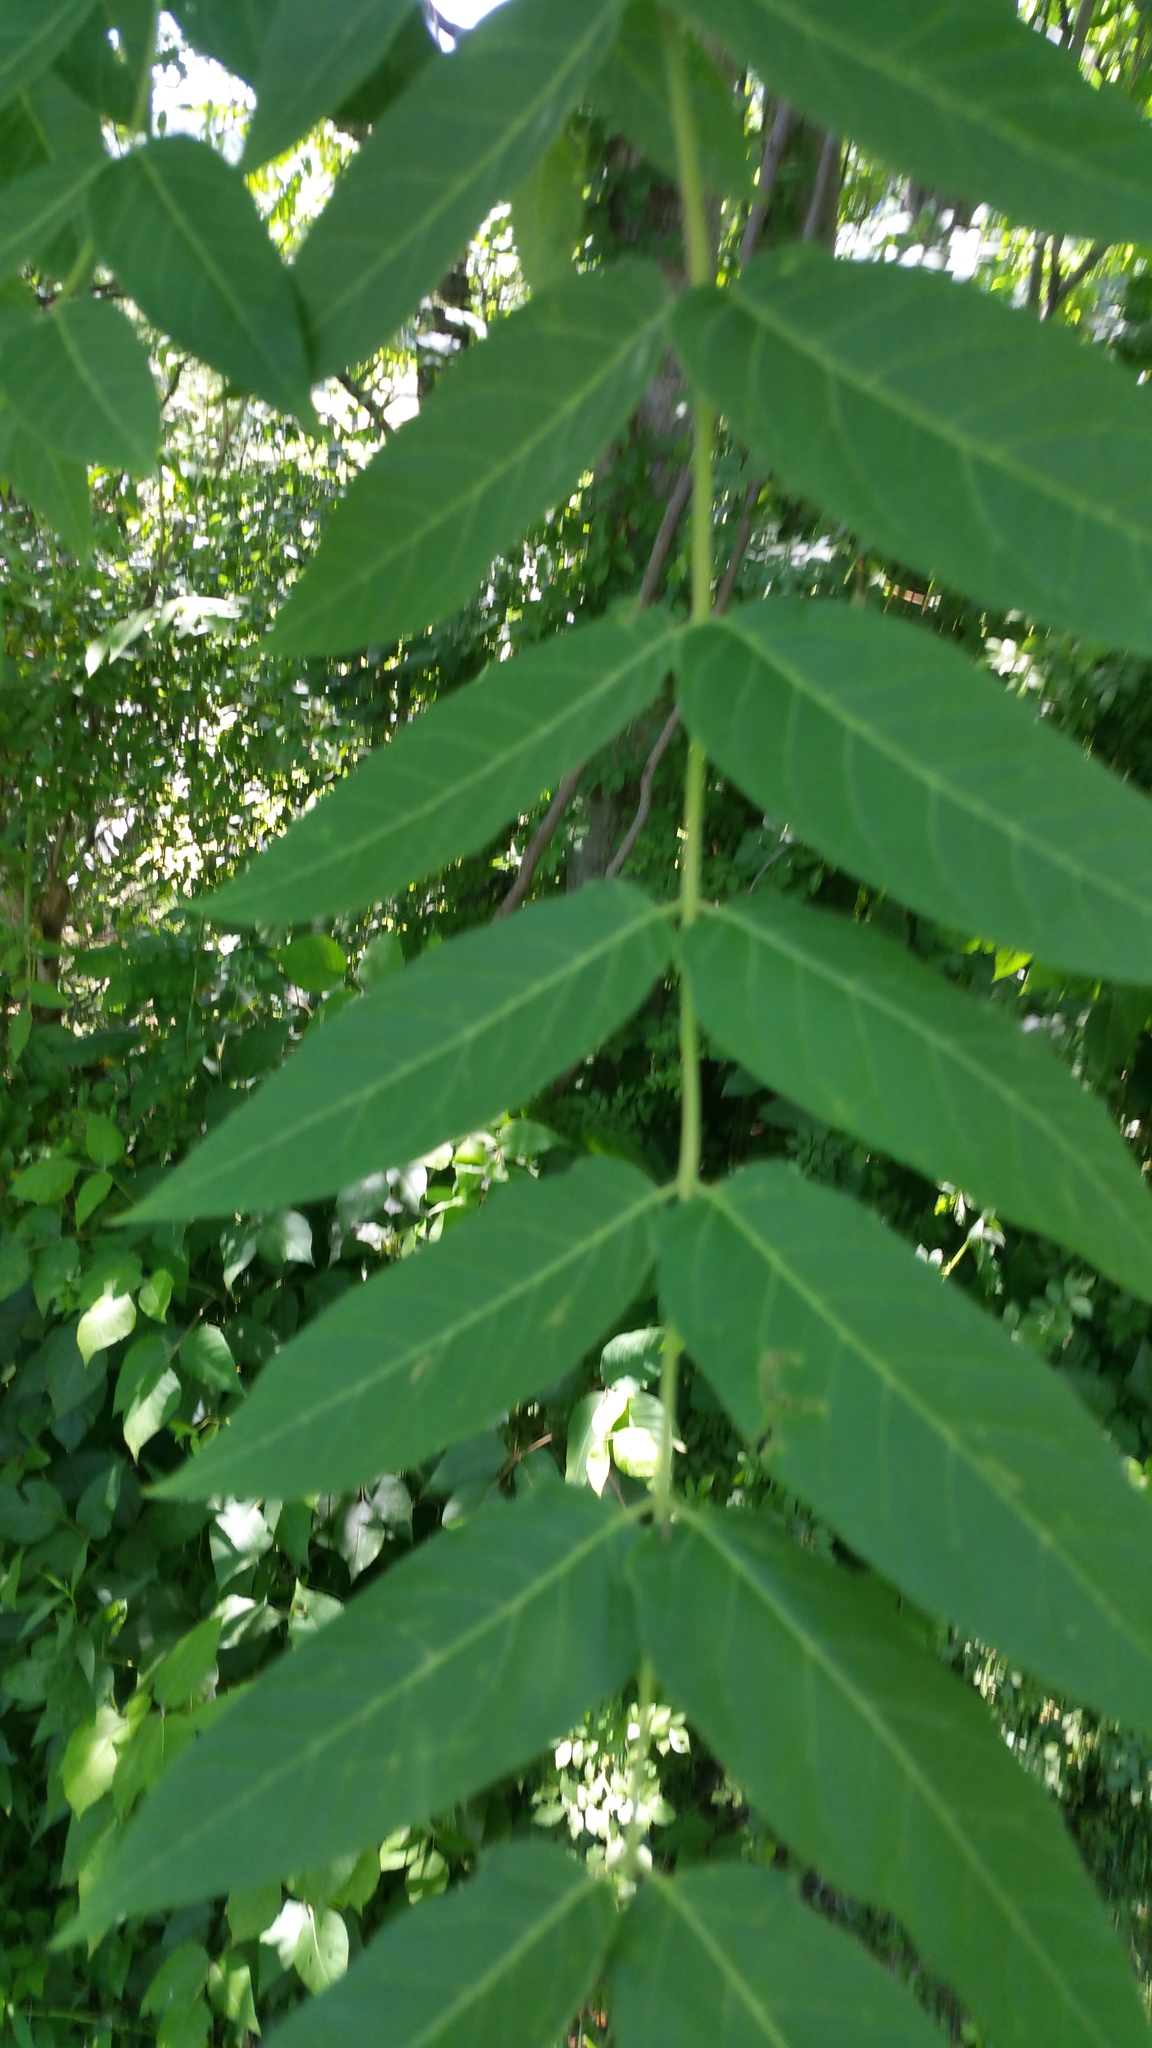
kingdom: Plantae
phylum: Tracheophyta
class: Magnoliopsida
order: Sapindales
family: Simaroubaceae
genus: Ailanthus
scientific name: Ailanthus altissima
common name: Tree-of-heaven
